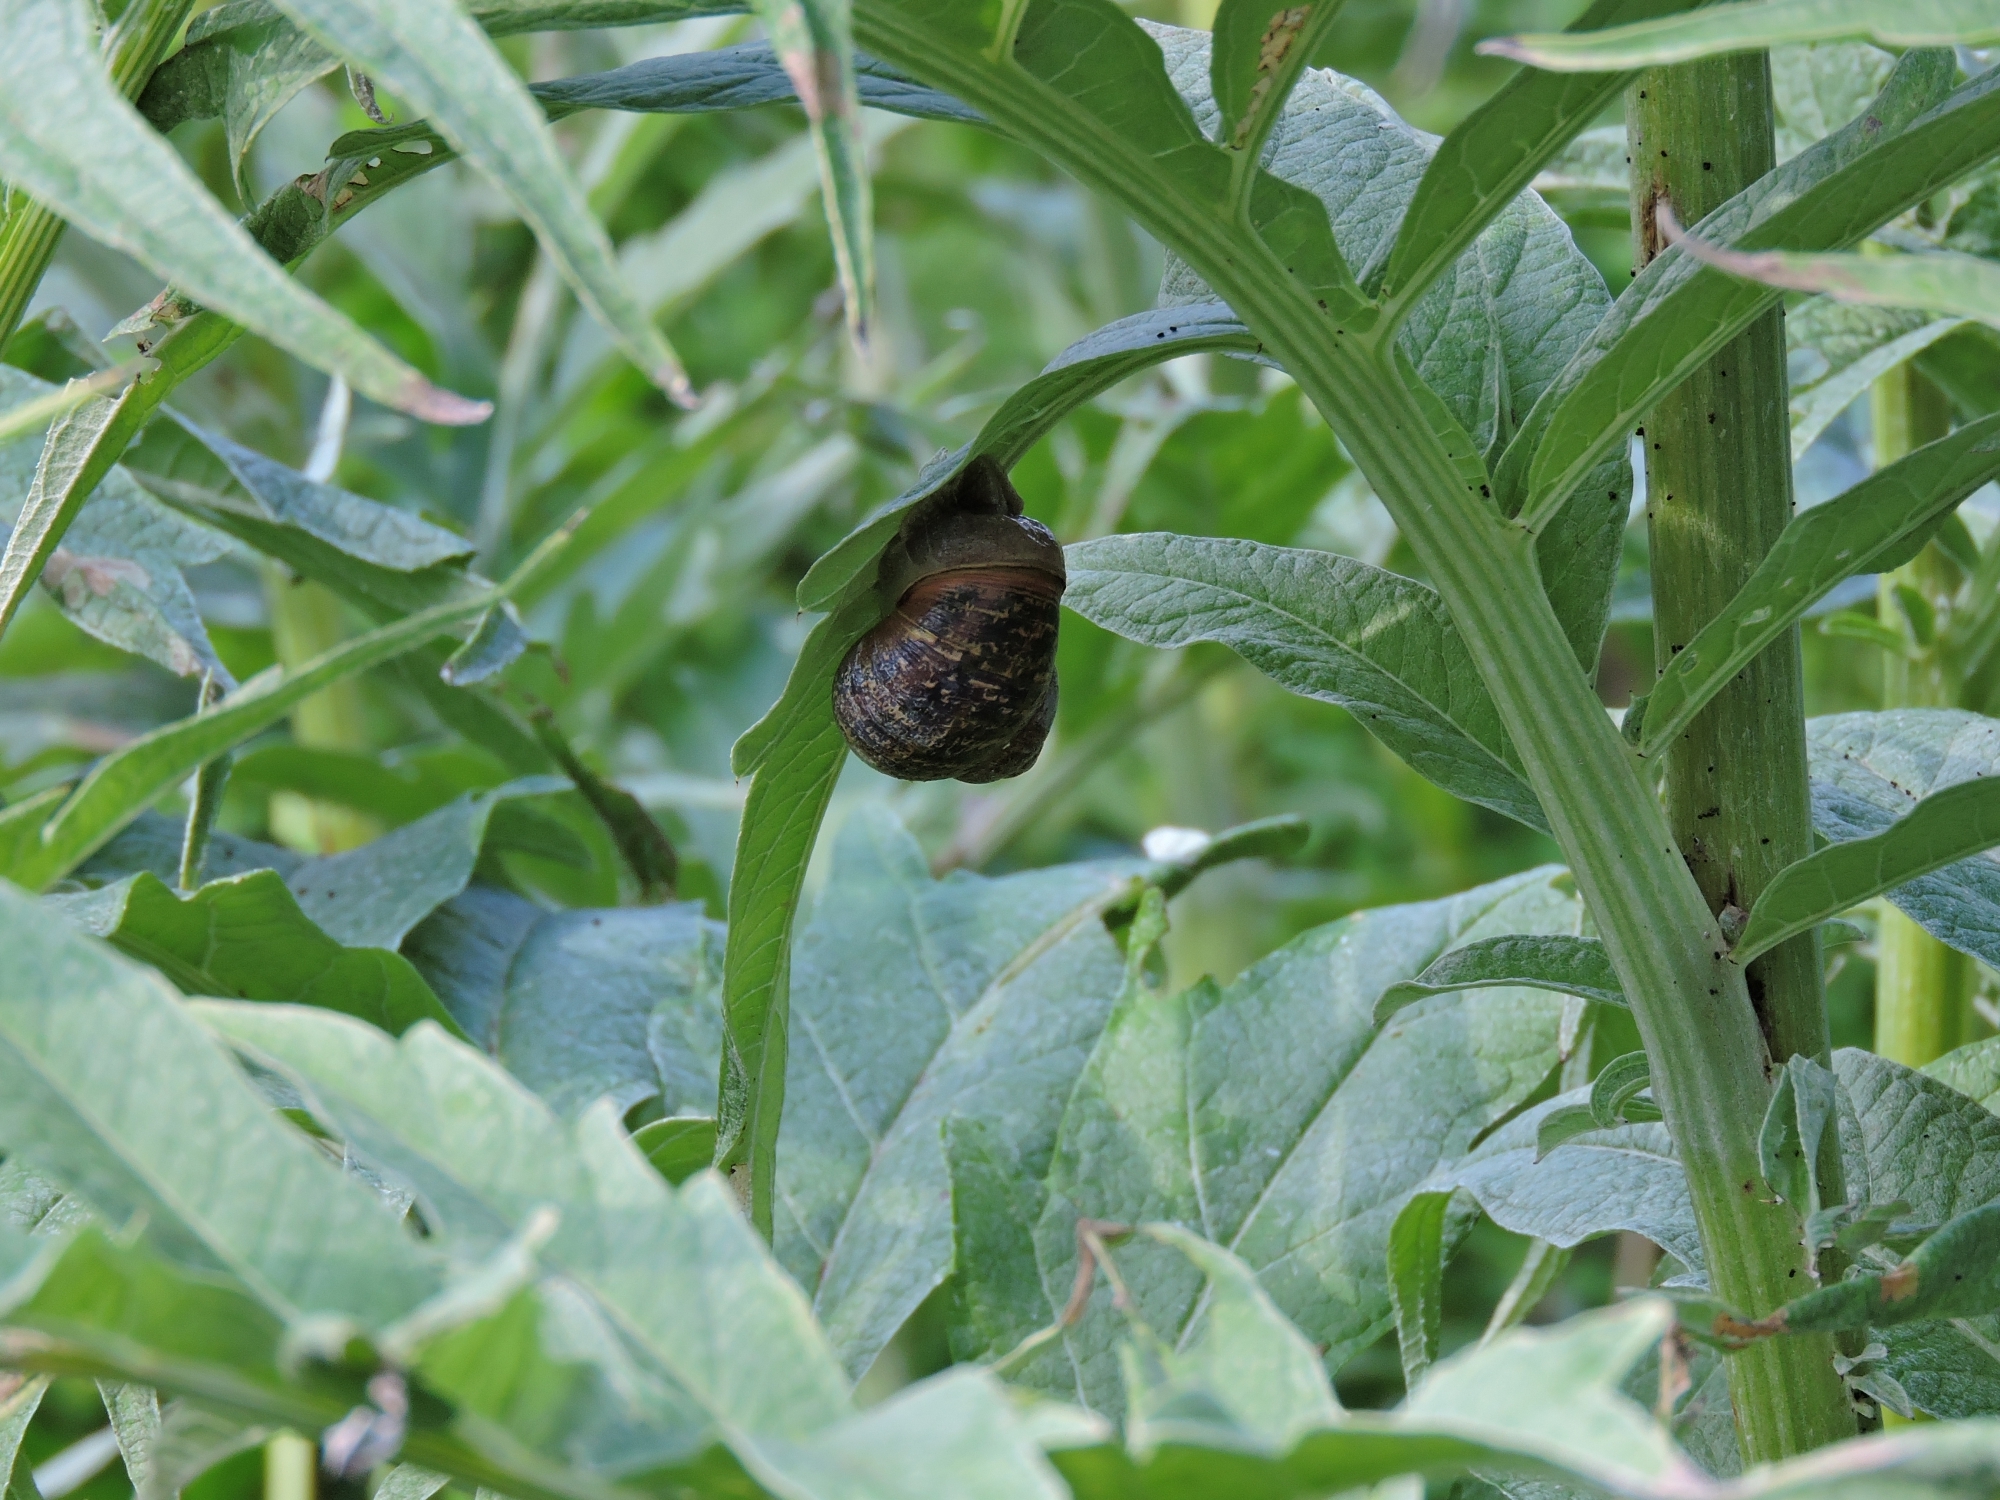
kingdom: Animalia
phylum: Mollusca
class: Gastropoda
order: Stylommatophora
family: Helicidae
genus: Cornu
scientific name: Cornu aspersum
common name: Brown garden snail
